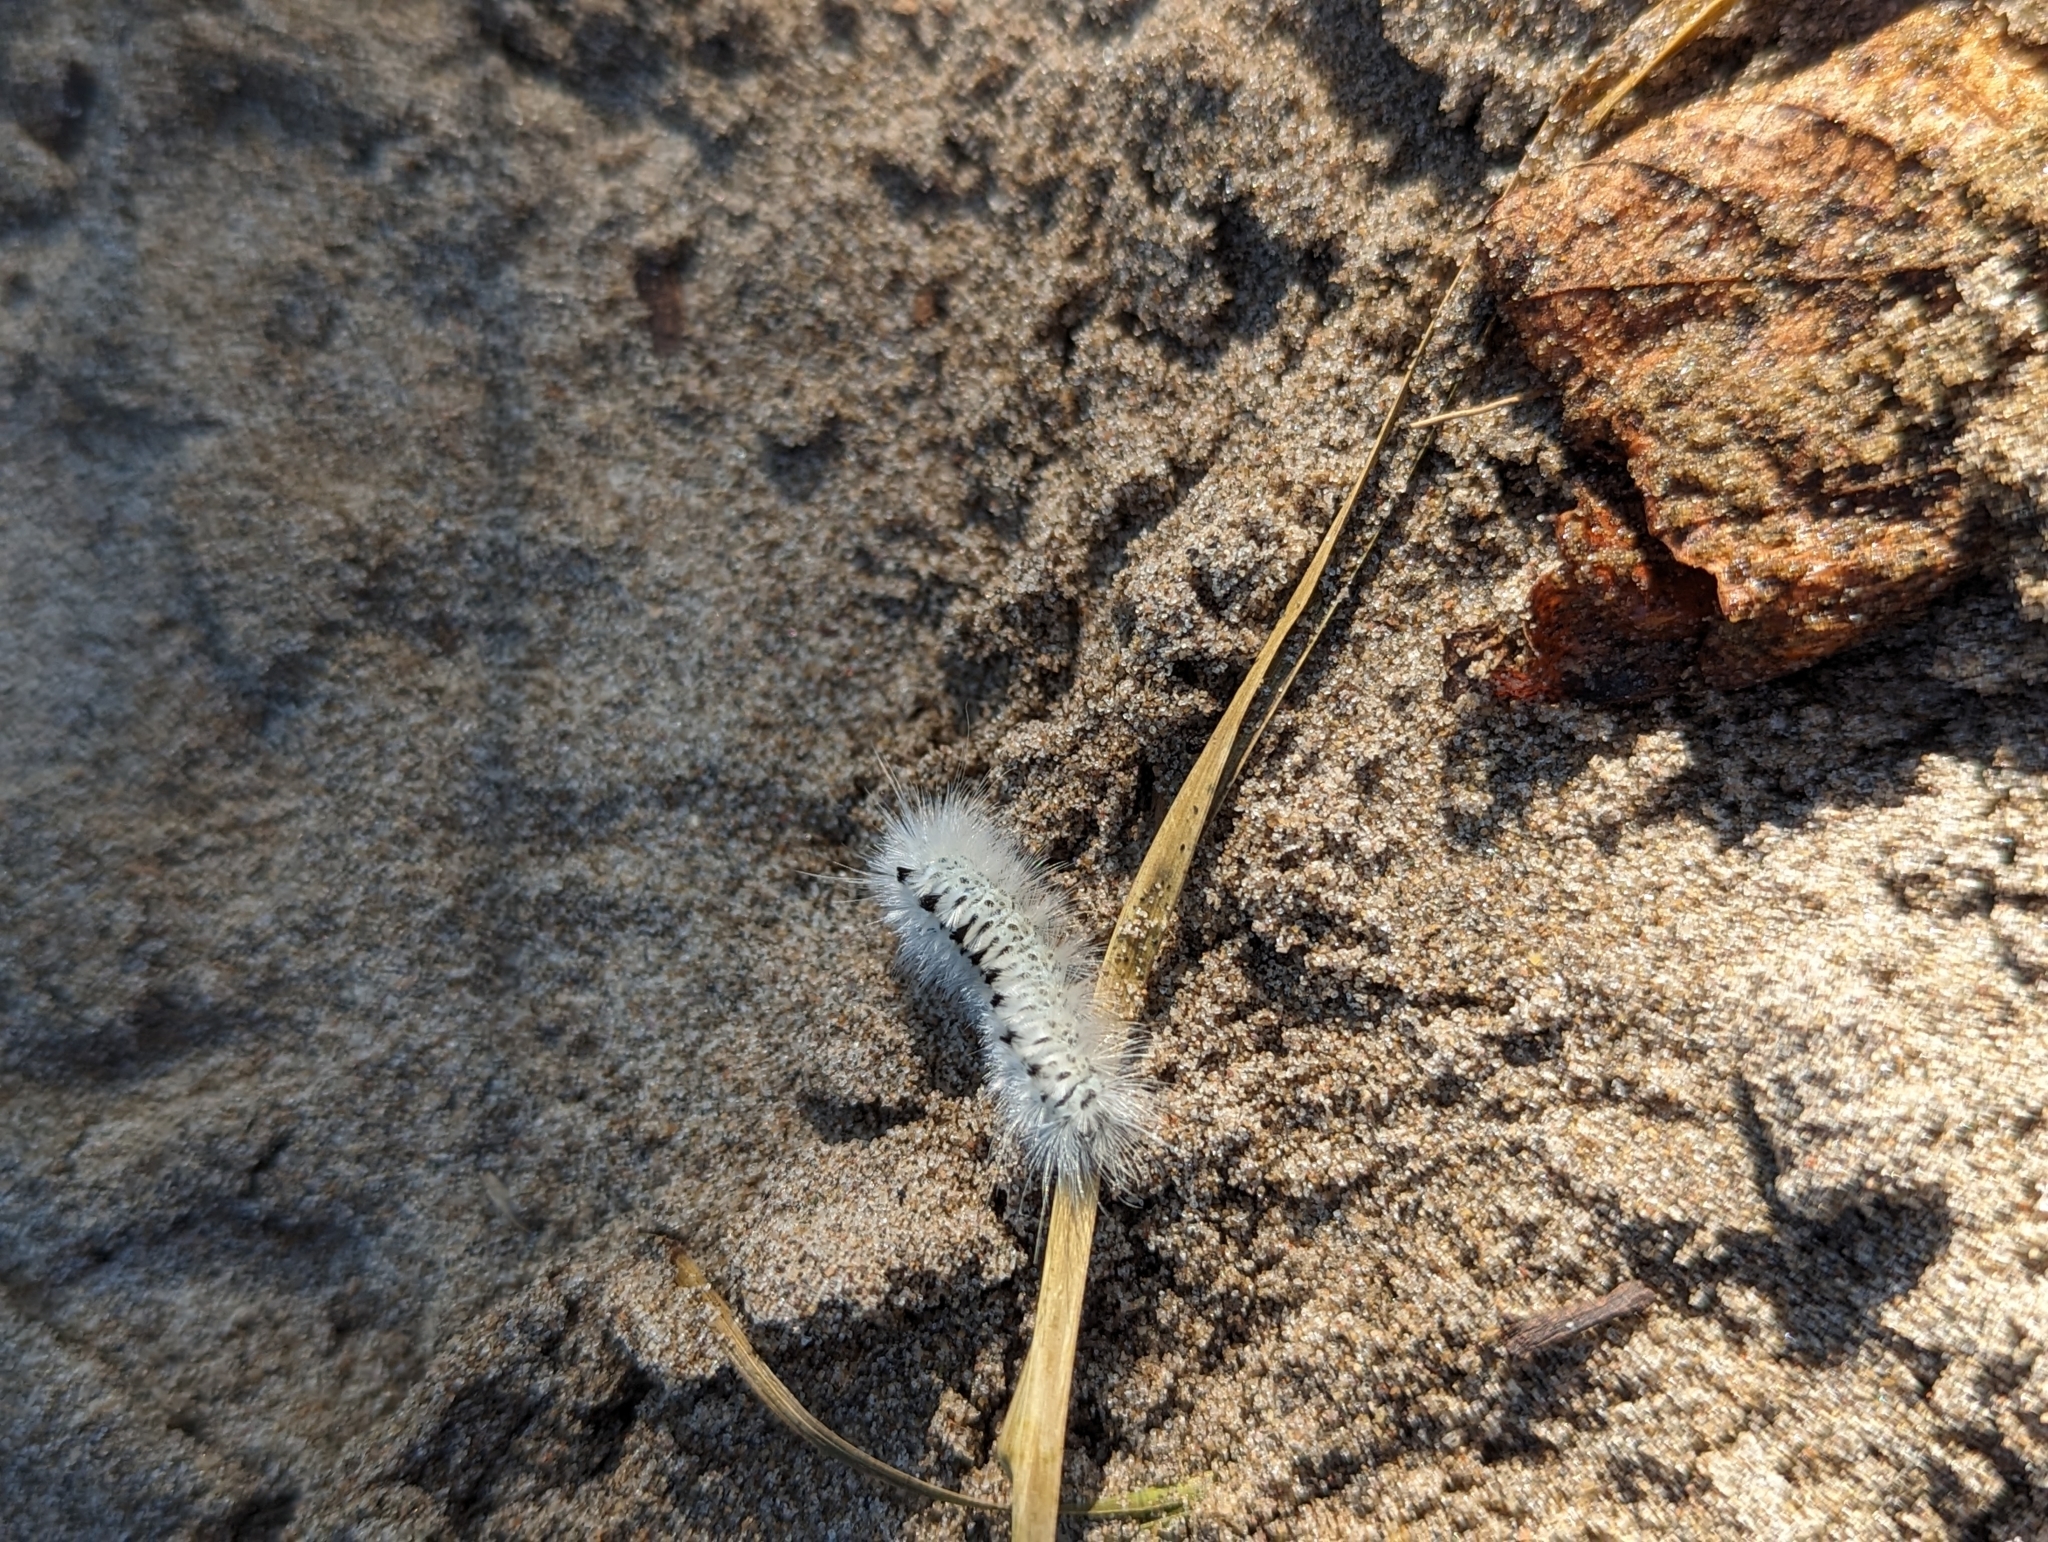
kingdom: Animalia
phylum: Arthropoda
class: Insecta
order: Lepidoptera
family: Erebidae
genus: Lophocampa
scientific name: Lophocampa caryae
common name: Hickory tussock moth
